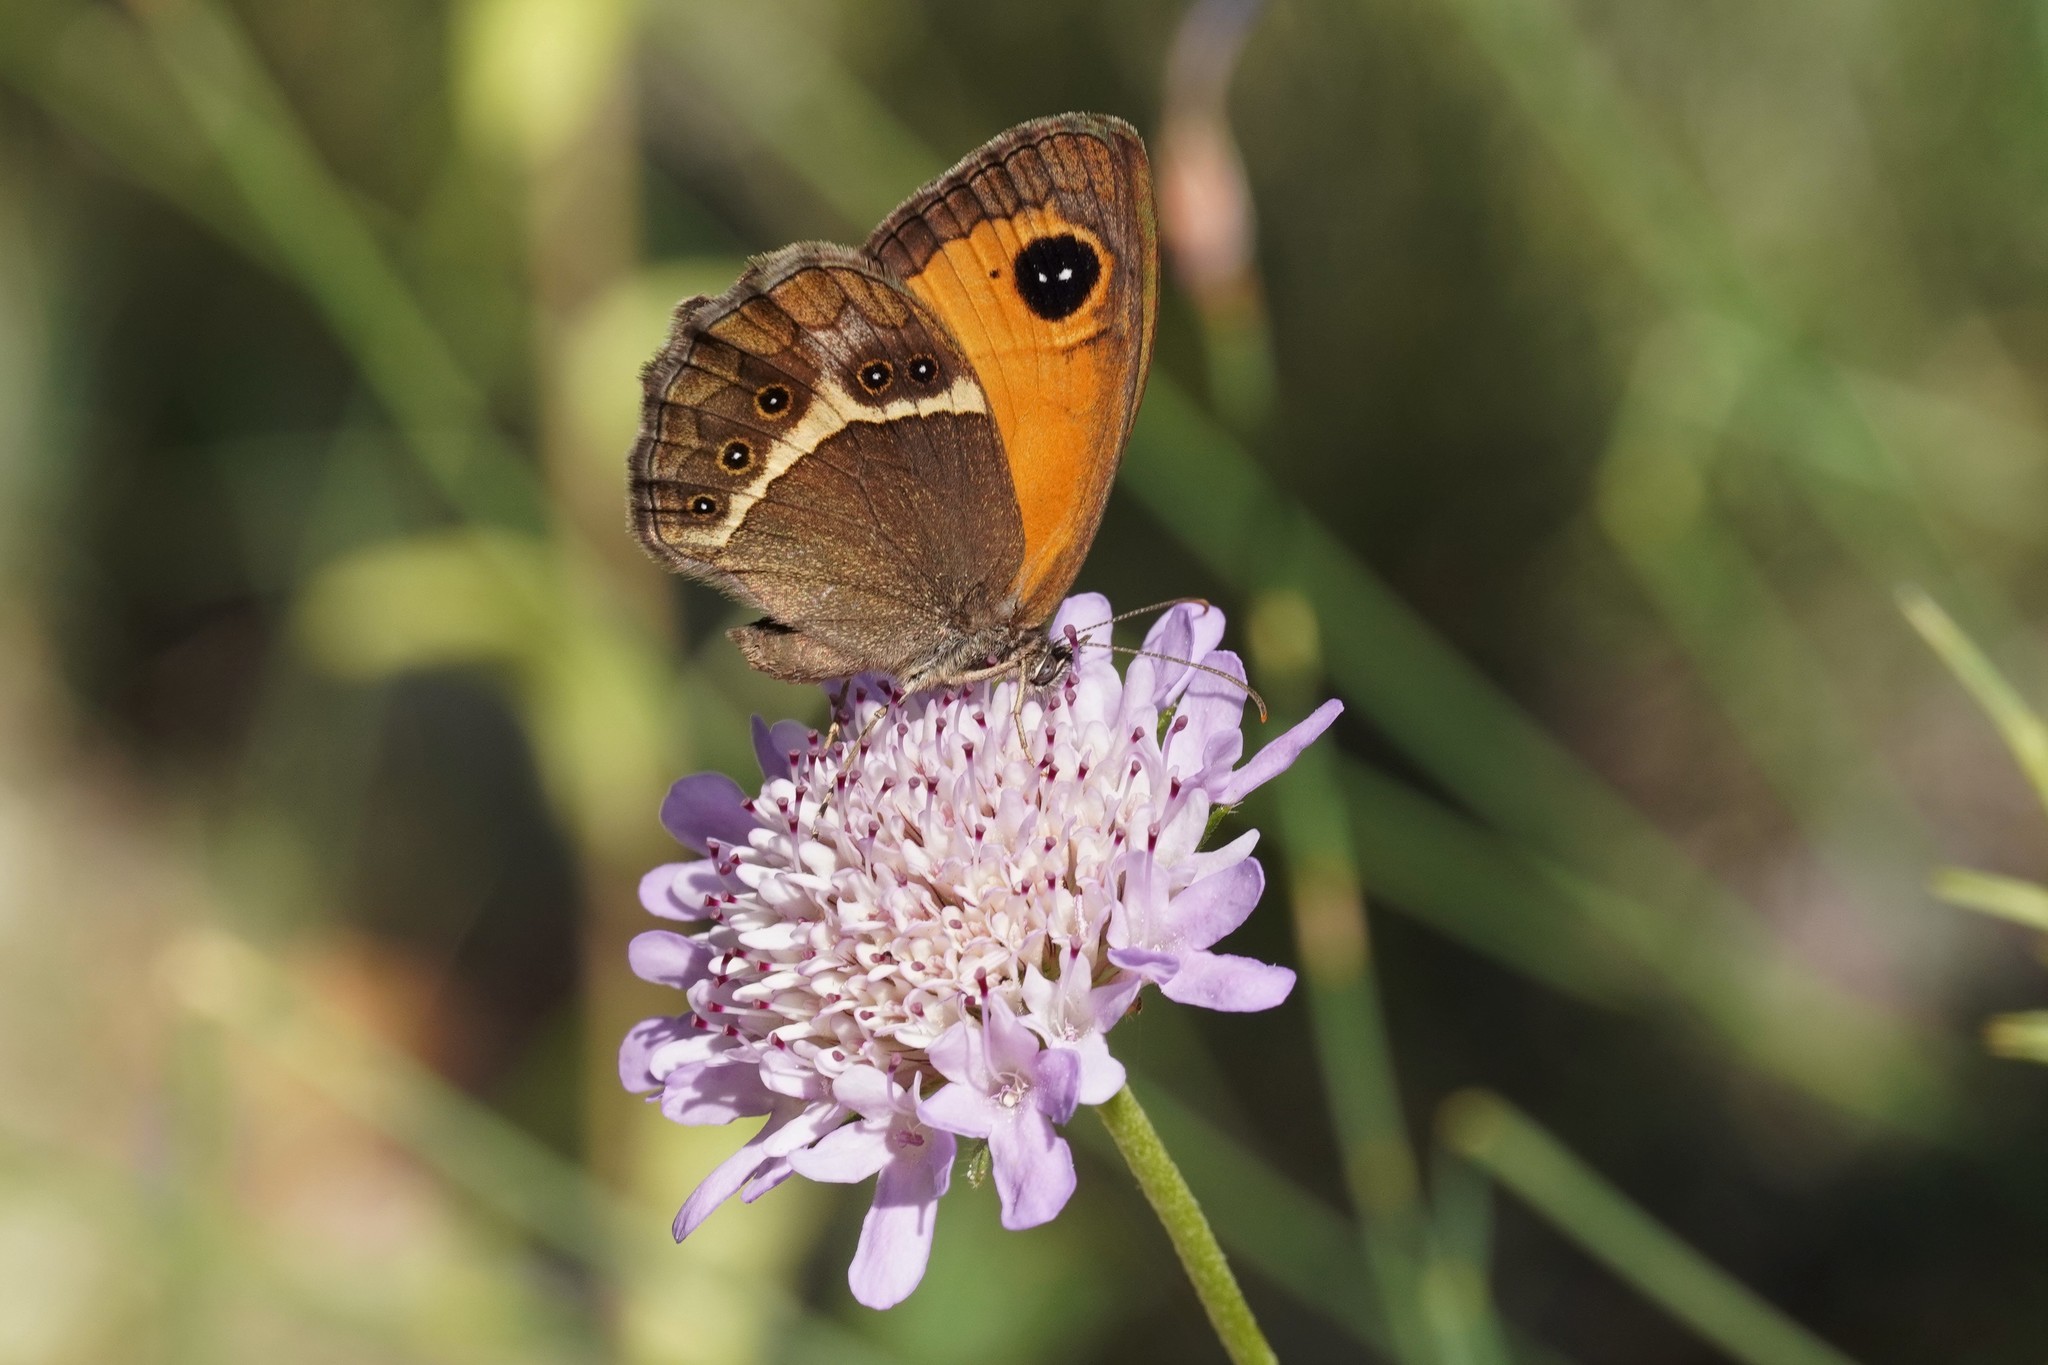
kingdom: Animalia
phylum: Arthropoda
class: Insecta
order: Lepidoptera
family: Nymphalidae
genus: Pyronia
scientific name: Pyronia bathseba
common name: Spanish gatekeeper
